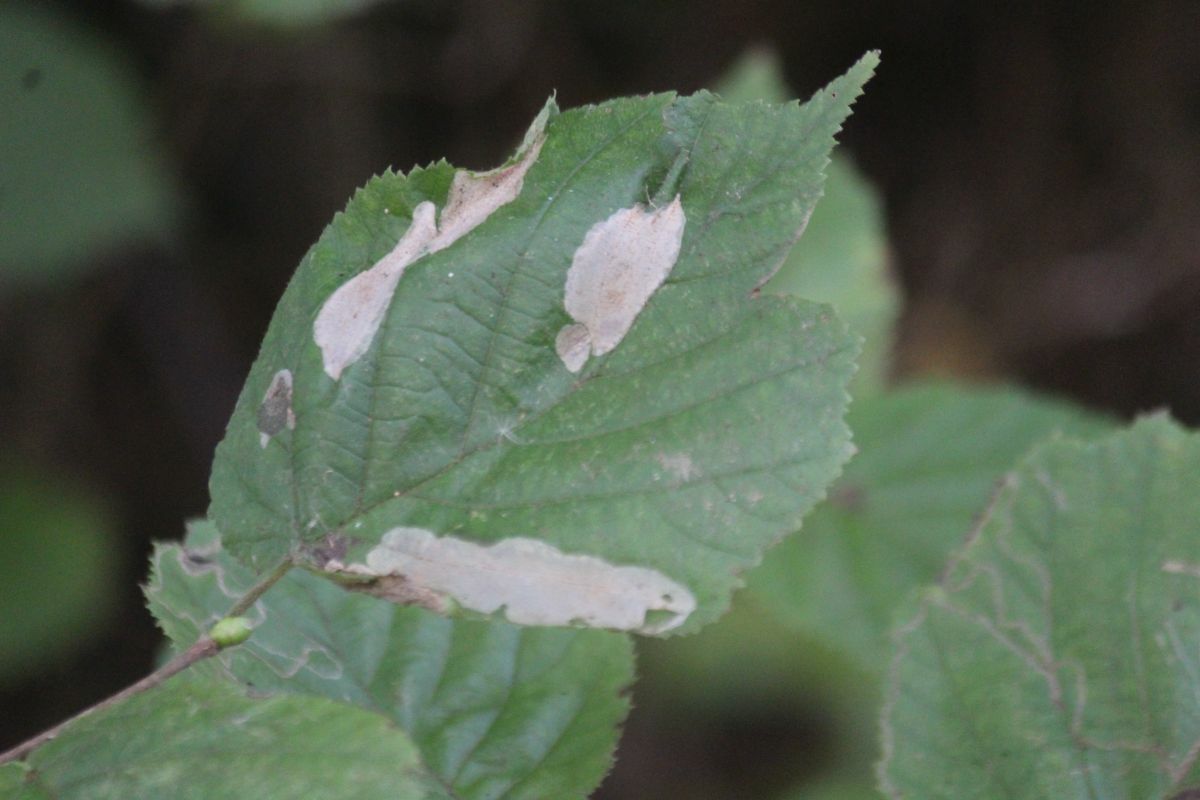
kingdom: Animalia
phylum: Arthropoda
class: Insecta
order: Lepidoptera
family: Gracillariidae
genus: Phyllonorycter
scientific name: Phyllonorycter coryli
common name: Nut-leaf blister moth
